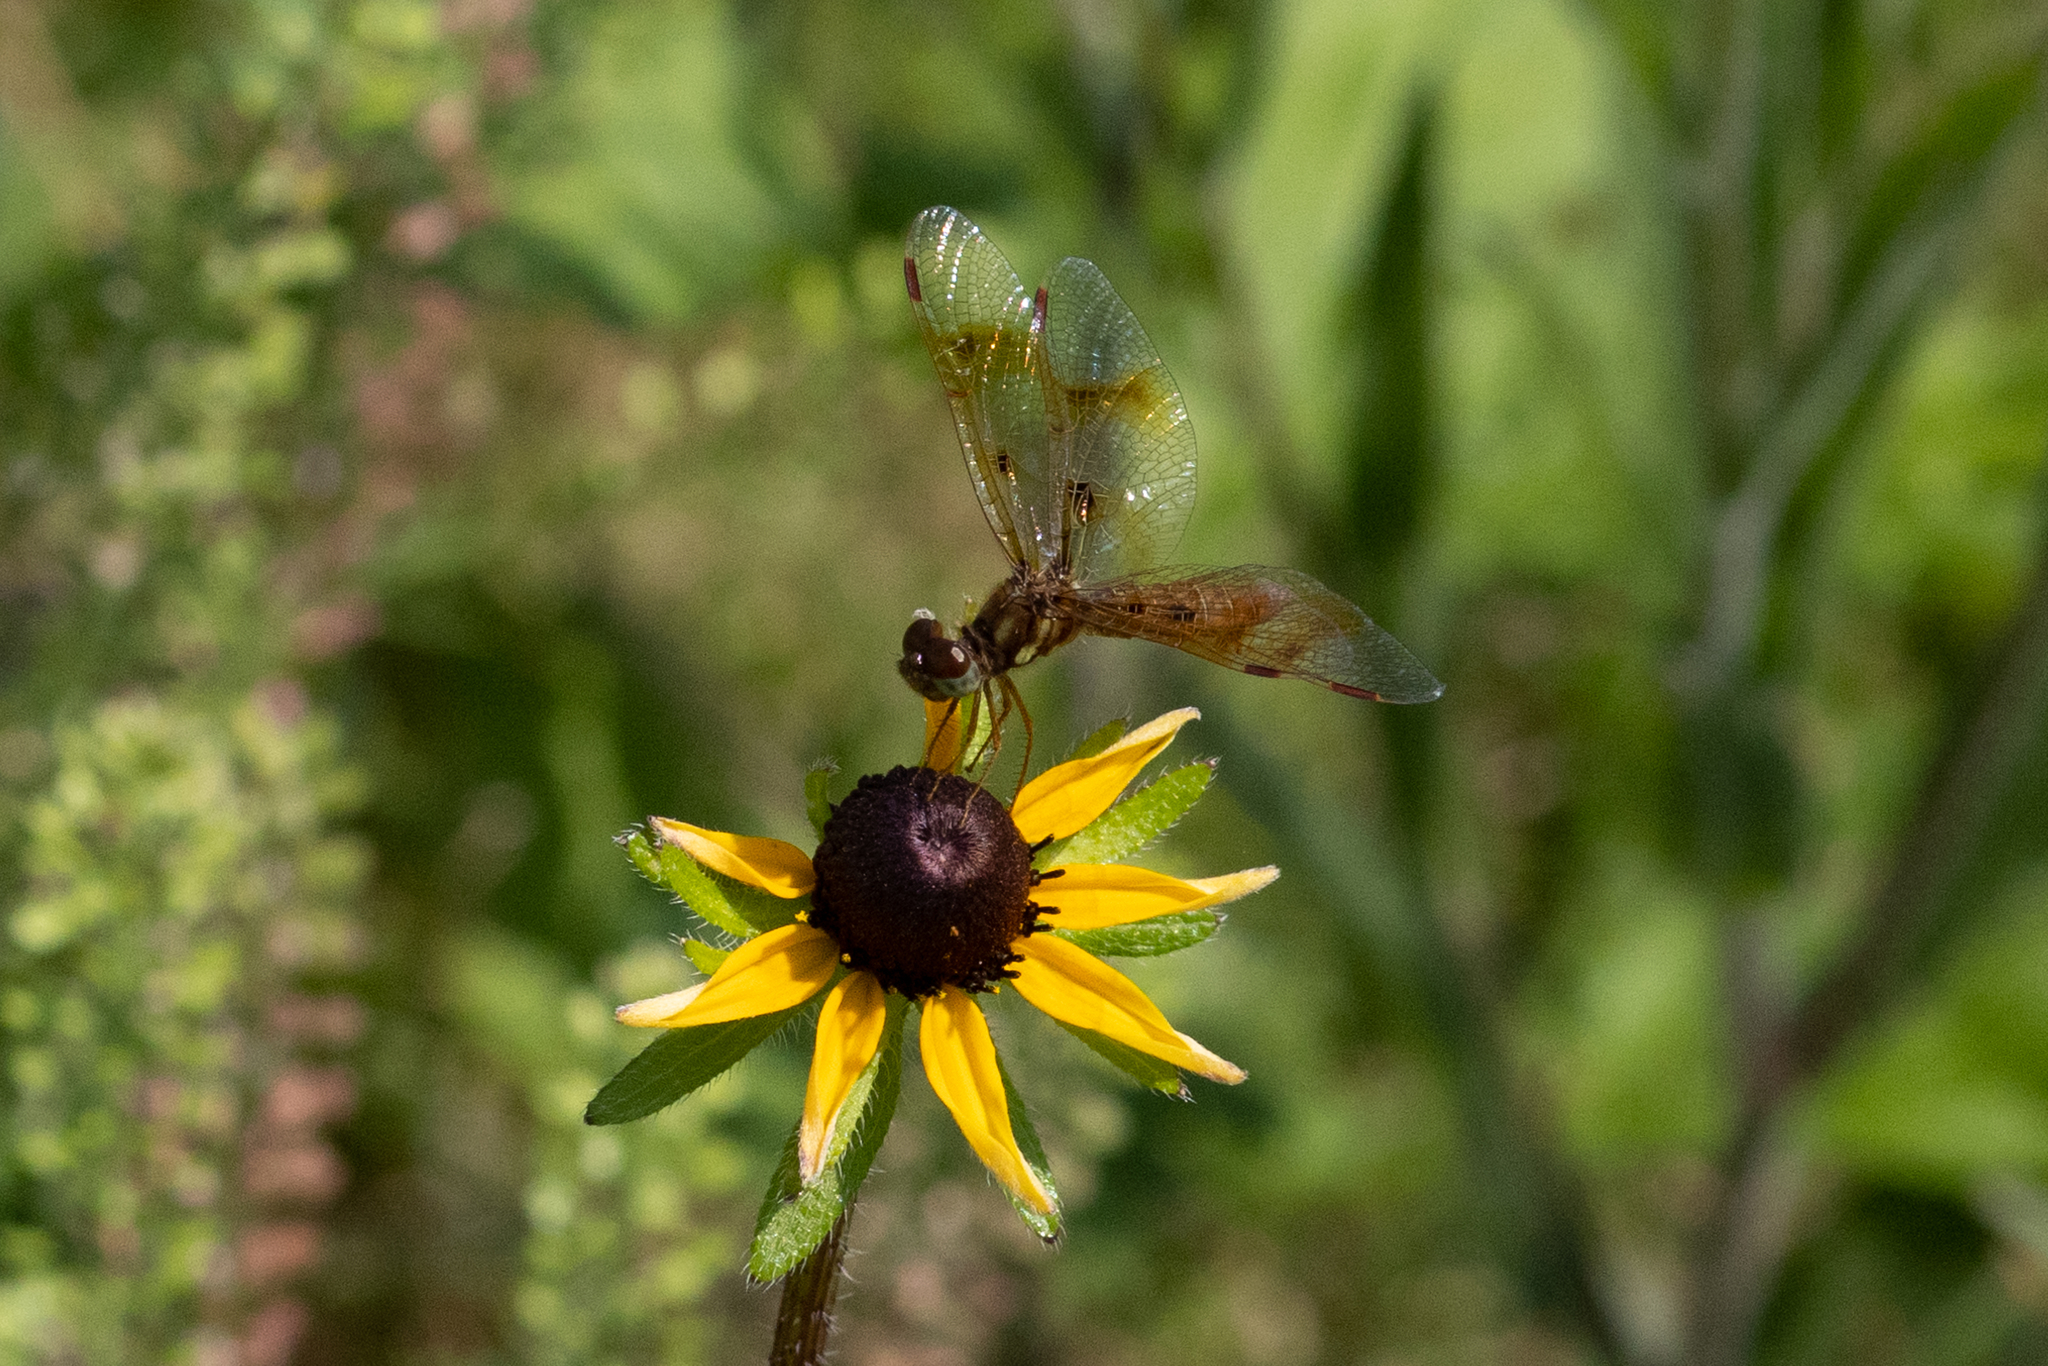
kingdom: Animalia
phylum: Arthropoda
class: Insecta
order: Odonata
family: Libellulidae
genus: Perithemis
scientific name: Perithemis tenera
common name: Eastern amberwing
